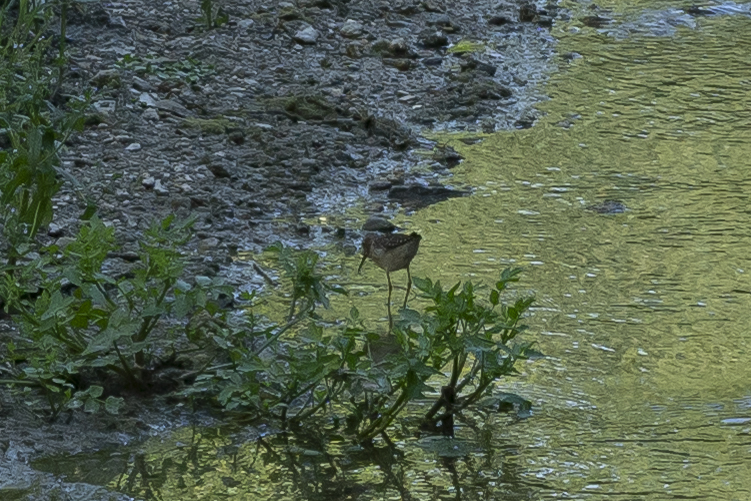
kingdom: Animalia
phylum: Chordata
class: Aves
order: Charadriiformes
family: Scolopacidae
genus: Tringa
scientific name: Tringa glareola
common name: Wood sandpiper
